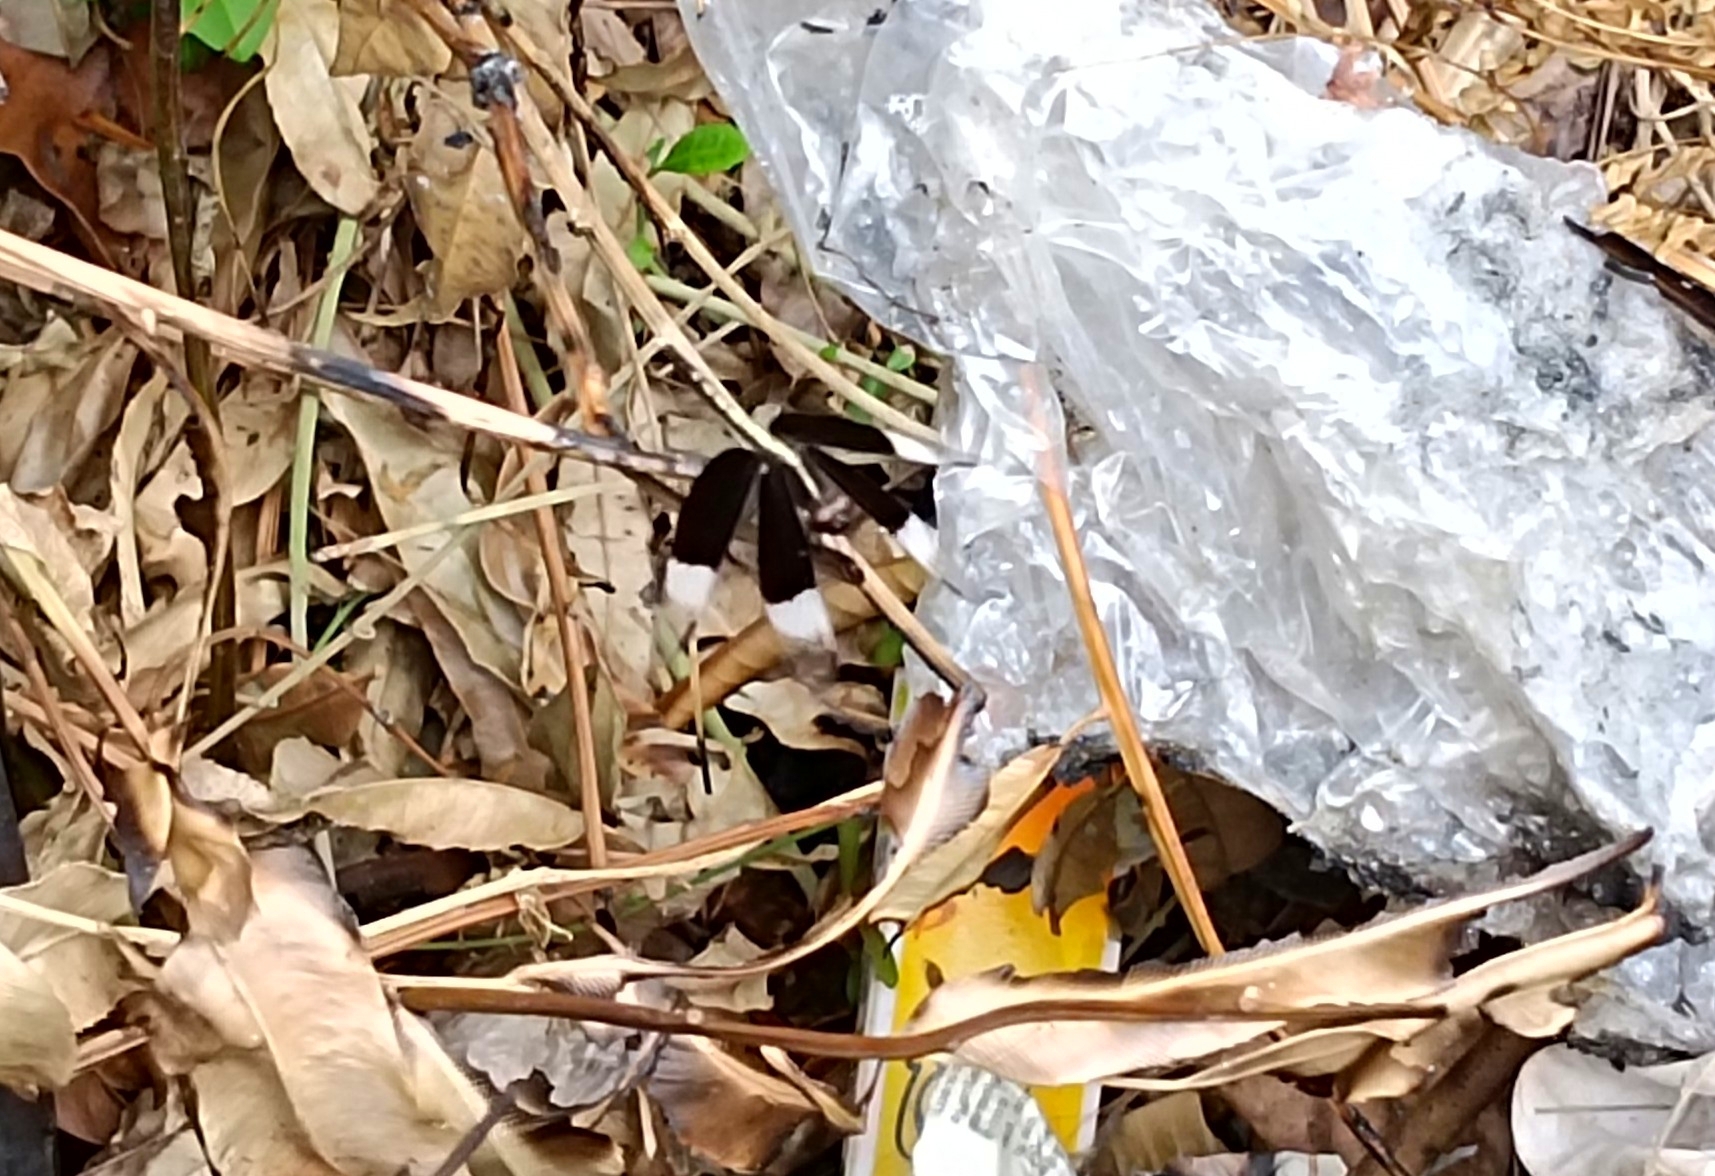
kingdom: Animalia
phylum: Arthropoda
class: Insecta
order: Odonata
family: Libellulidae
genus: Neurothemis
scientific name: Neurothemis tullia
